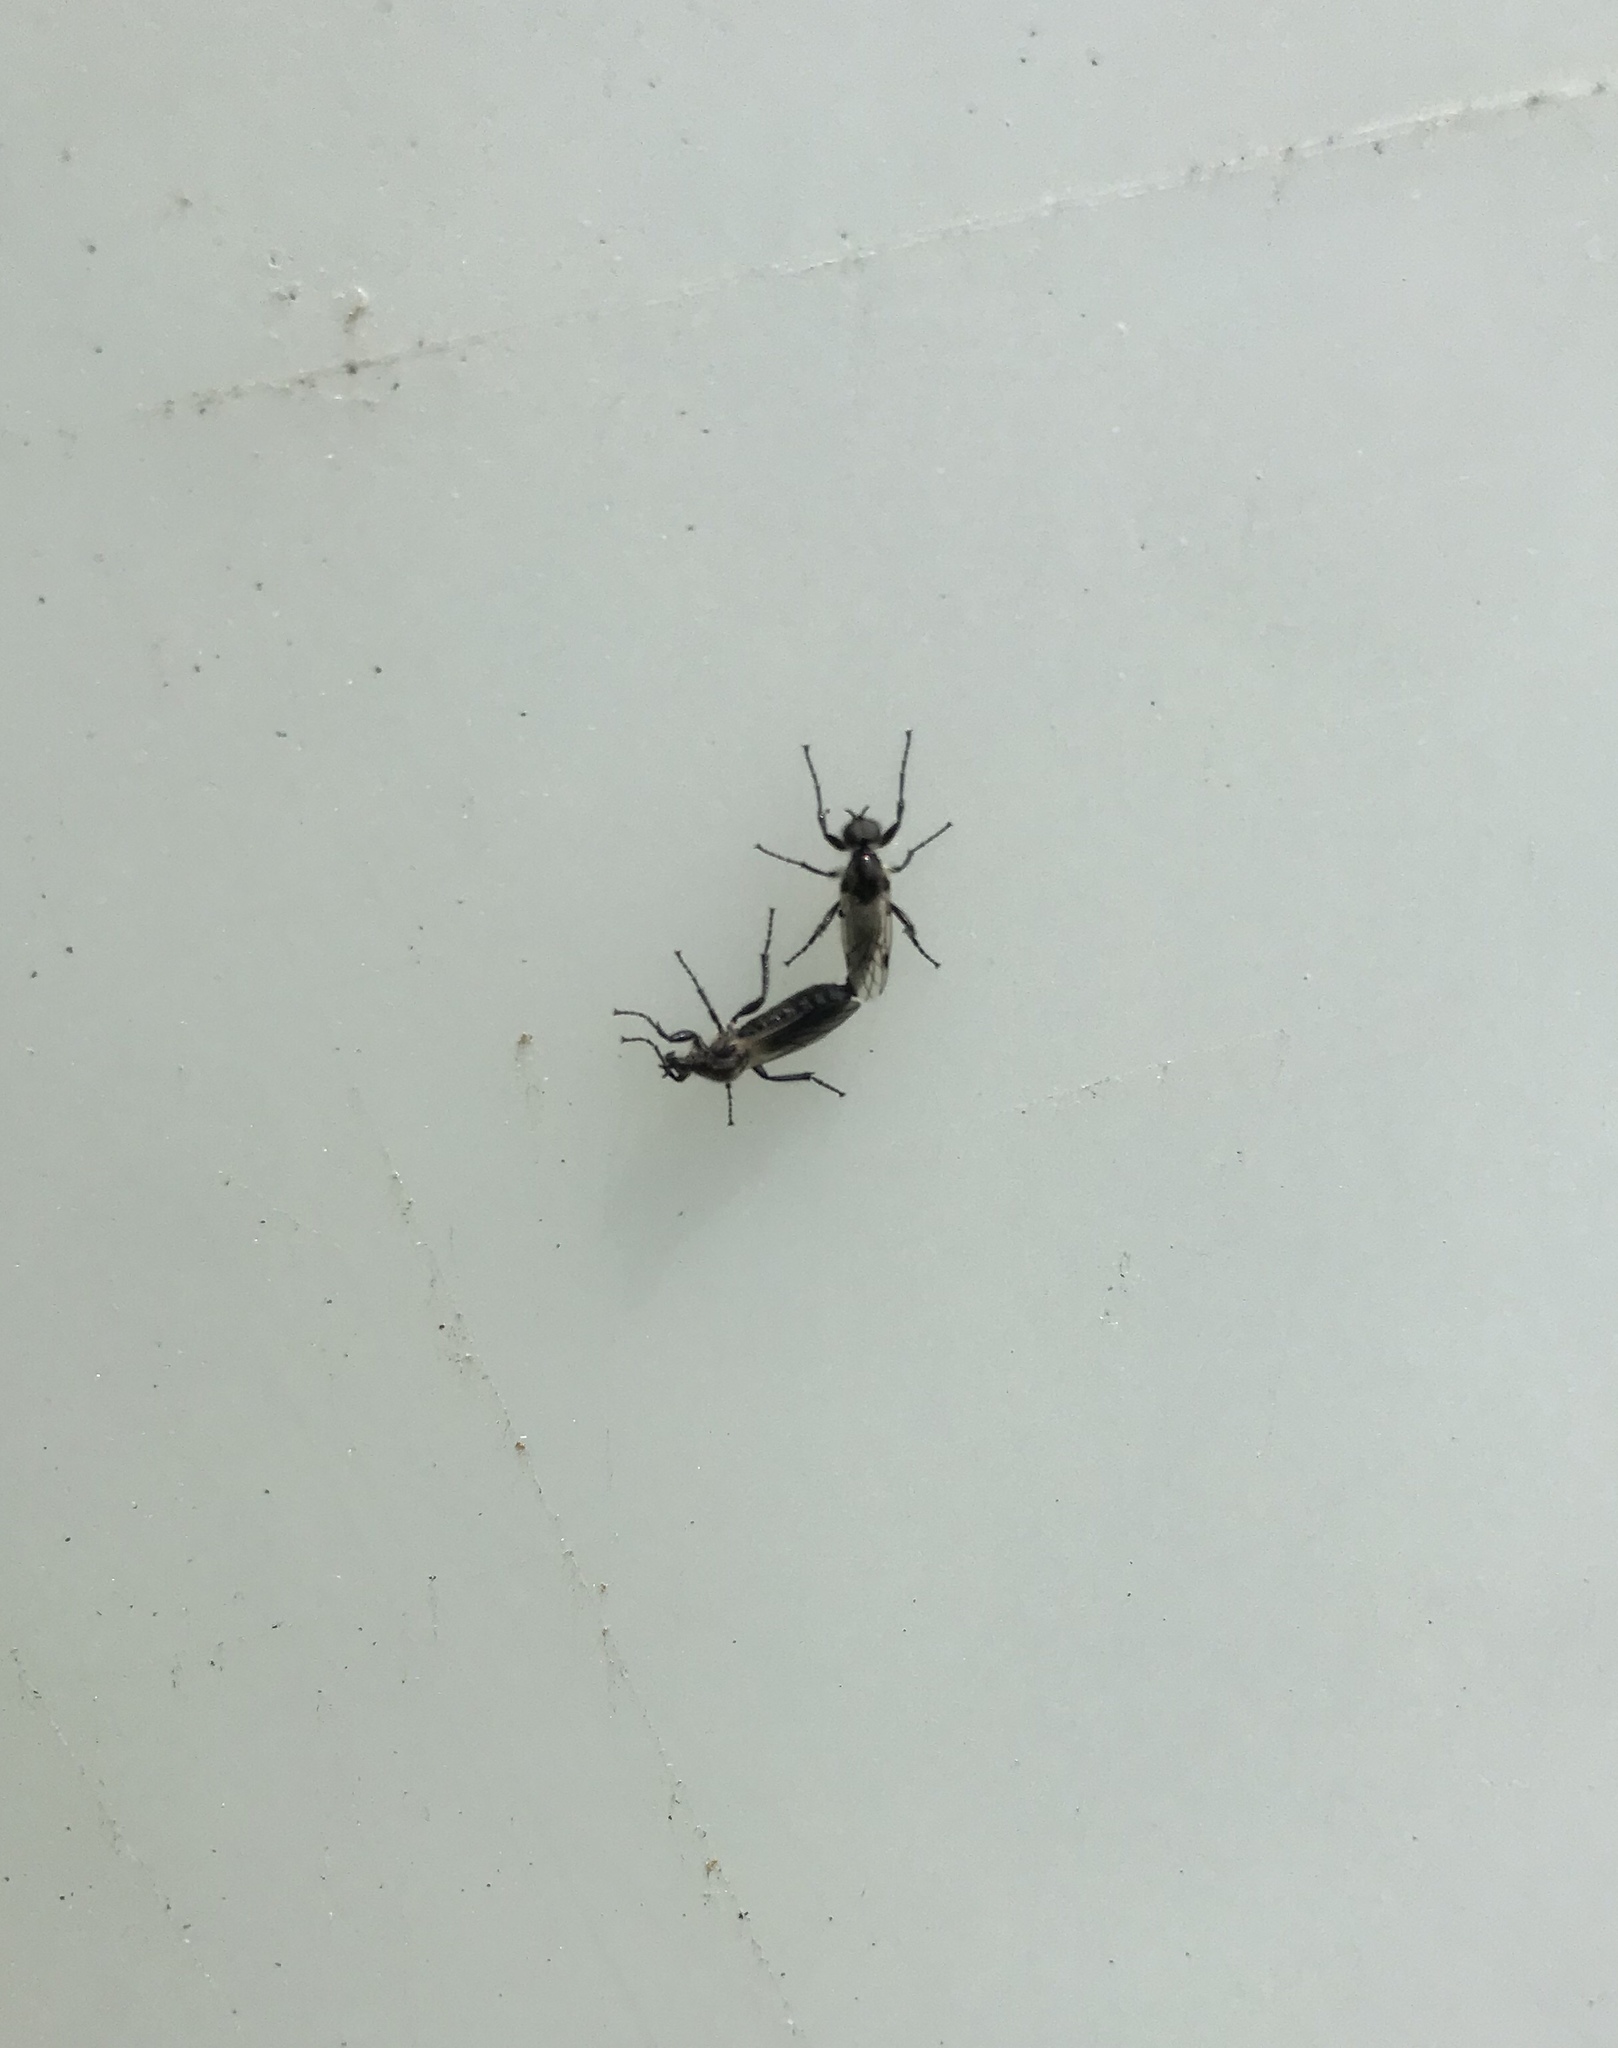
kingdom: Animalia
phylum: Arthropoda
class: Insecta
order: Diptera
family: Bibionidae
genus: Bibio
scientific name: Bibio albipennis
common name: White-winged march fly
